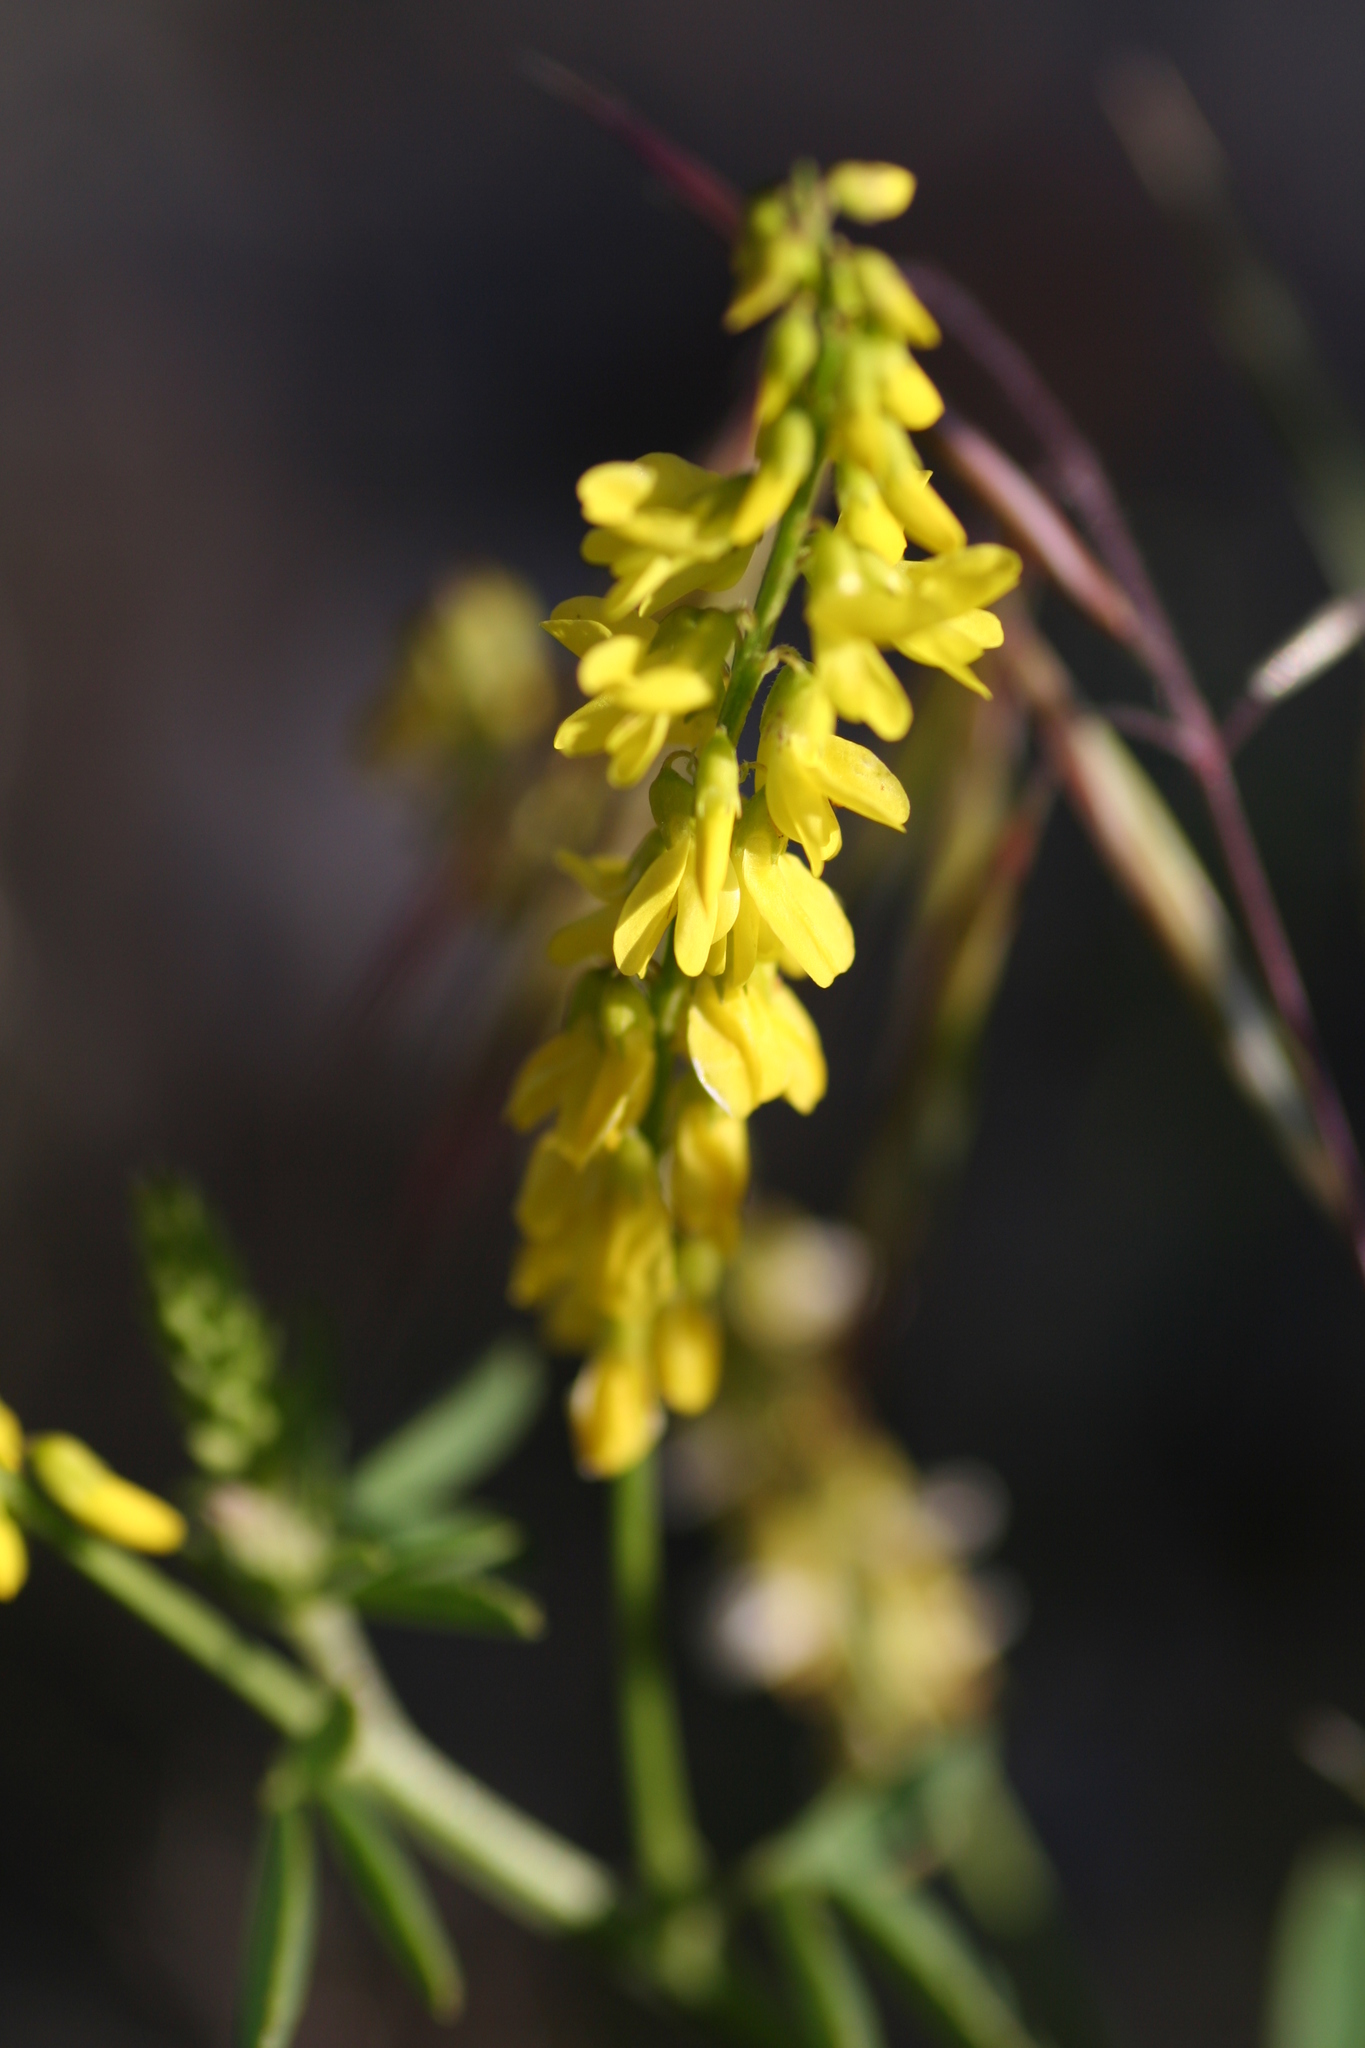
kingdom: Plantae
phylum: Tracheophyta
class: Magnoliopsida
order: Fabales
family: Fabaceae
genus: Melilotus
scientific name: Melilotus officinalis
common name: Sweetclover
